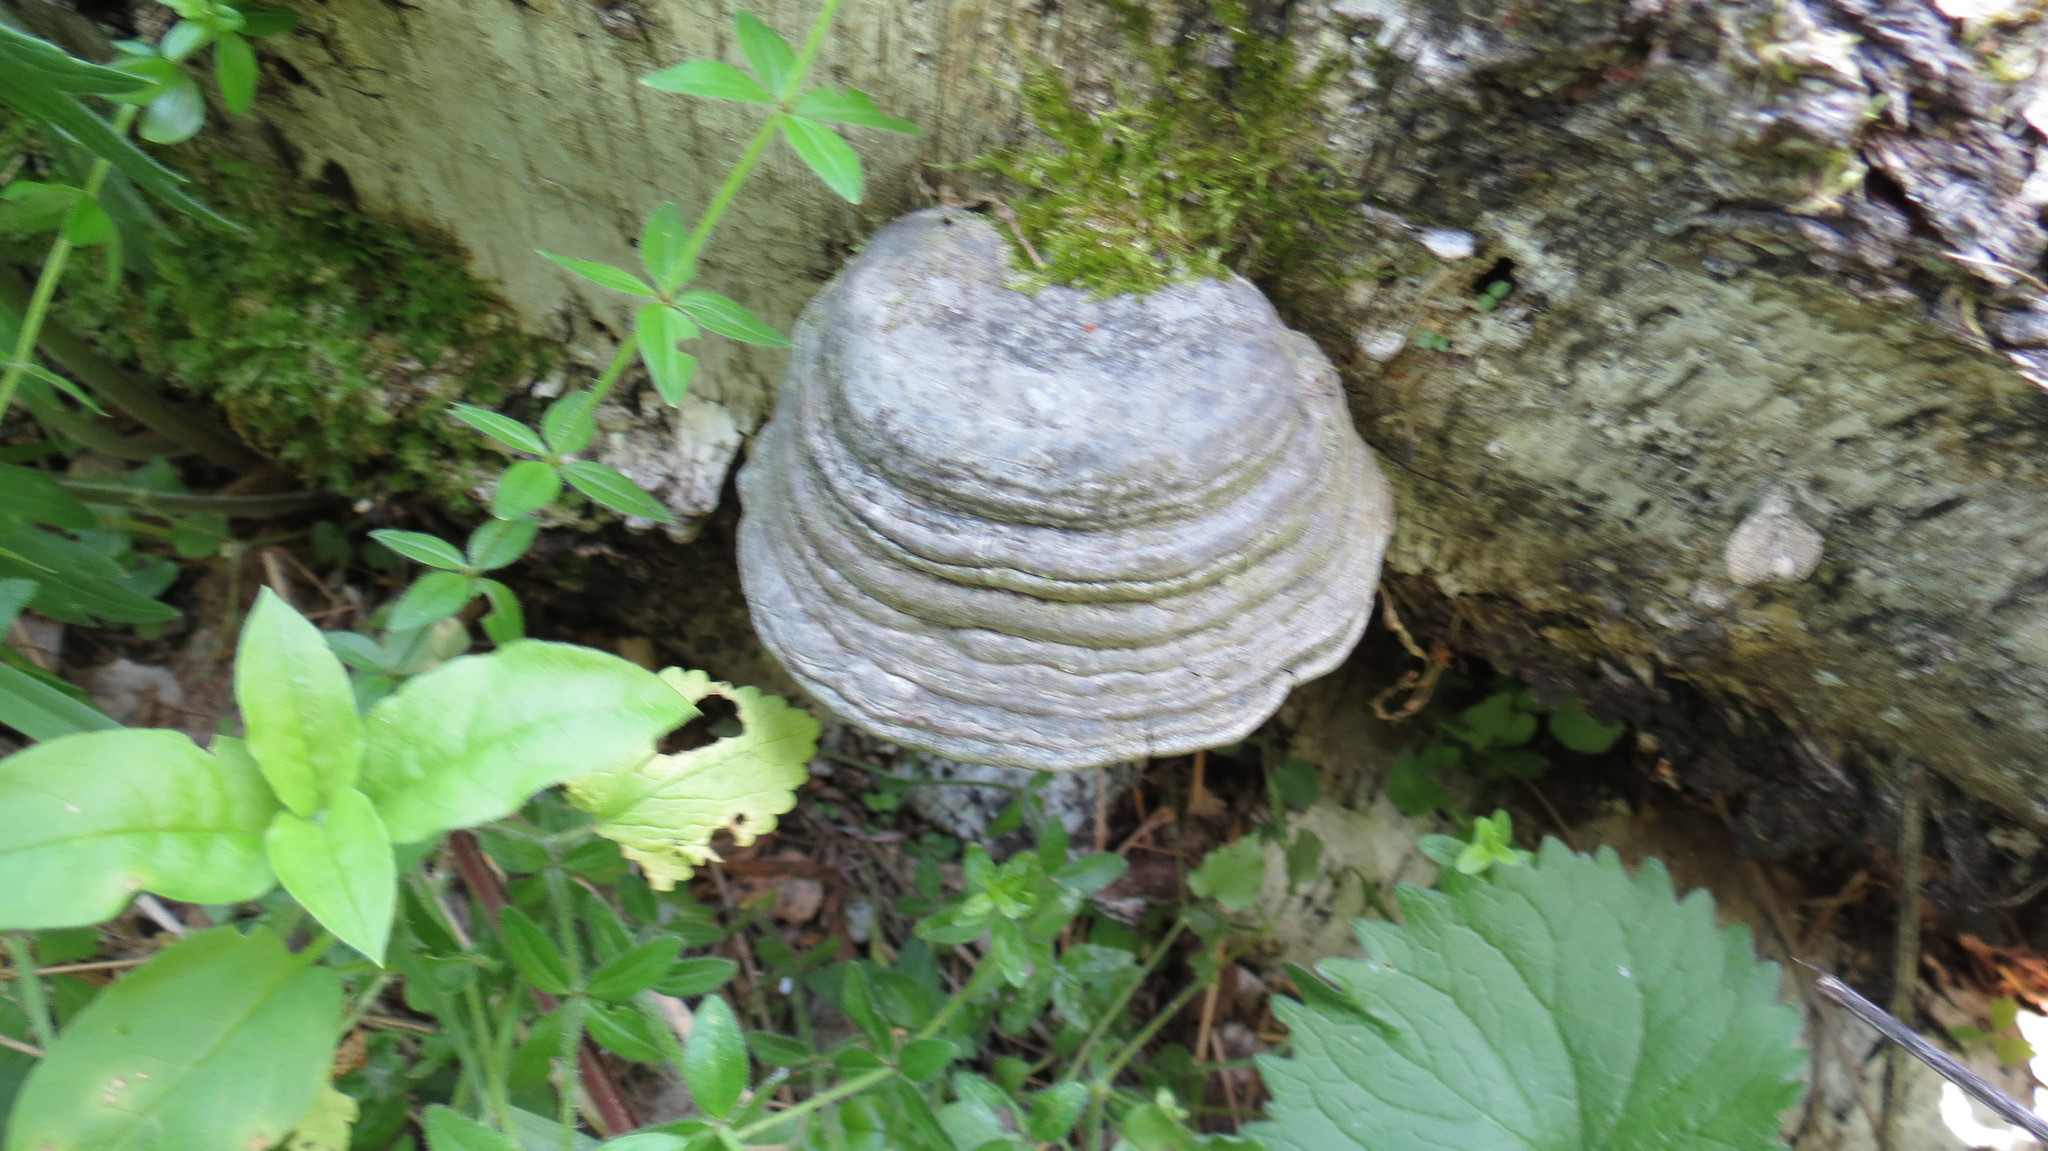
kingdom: Fungi
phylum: Basidiomycota
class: Agaricomycetes
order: Polyporales
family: Polyporaceae
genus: Fomes
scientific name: Fomes fomentarius
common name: Hoof fungus
